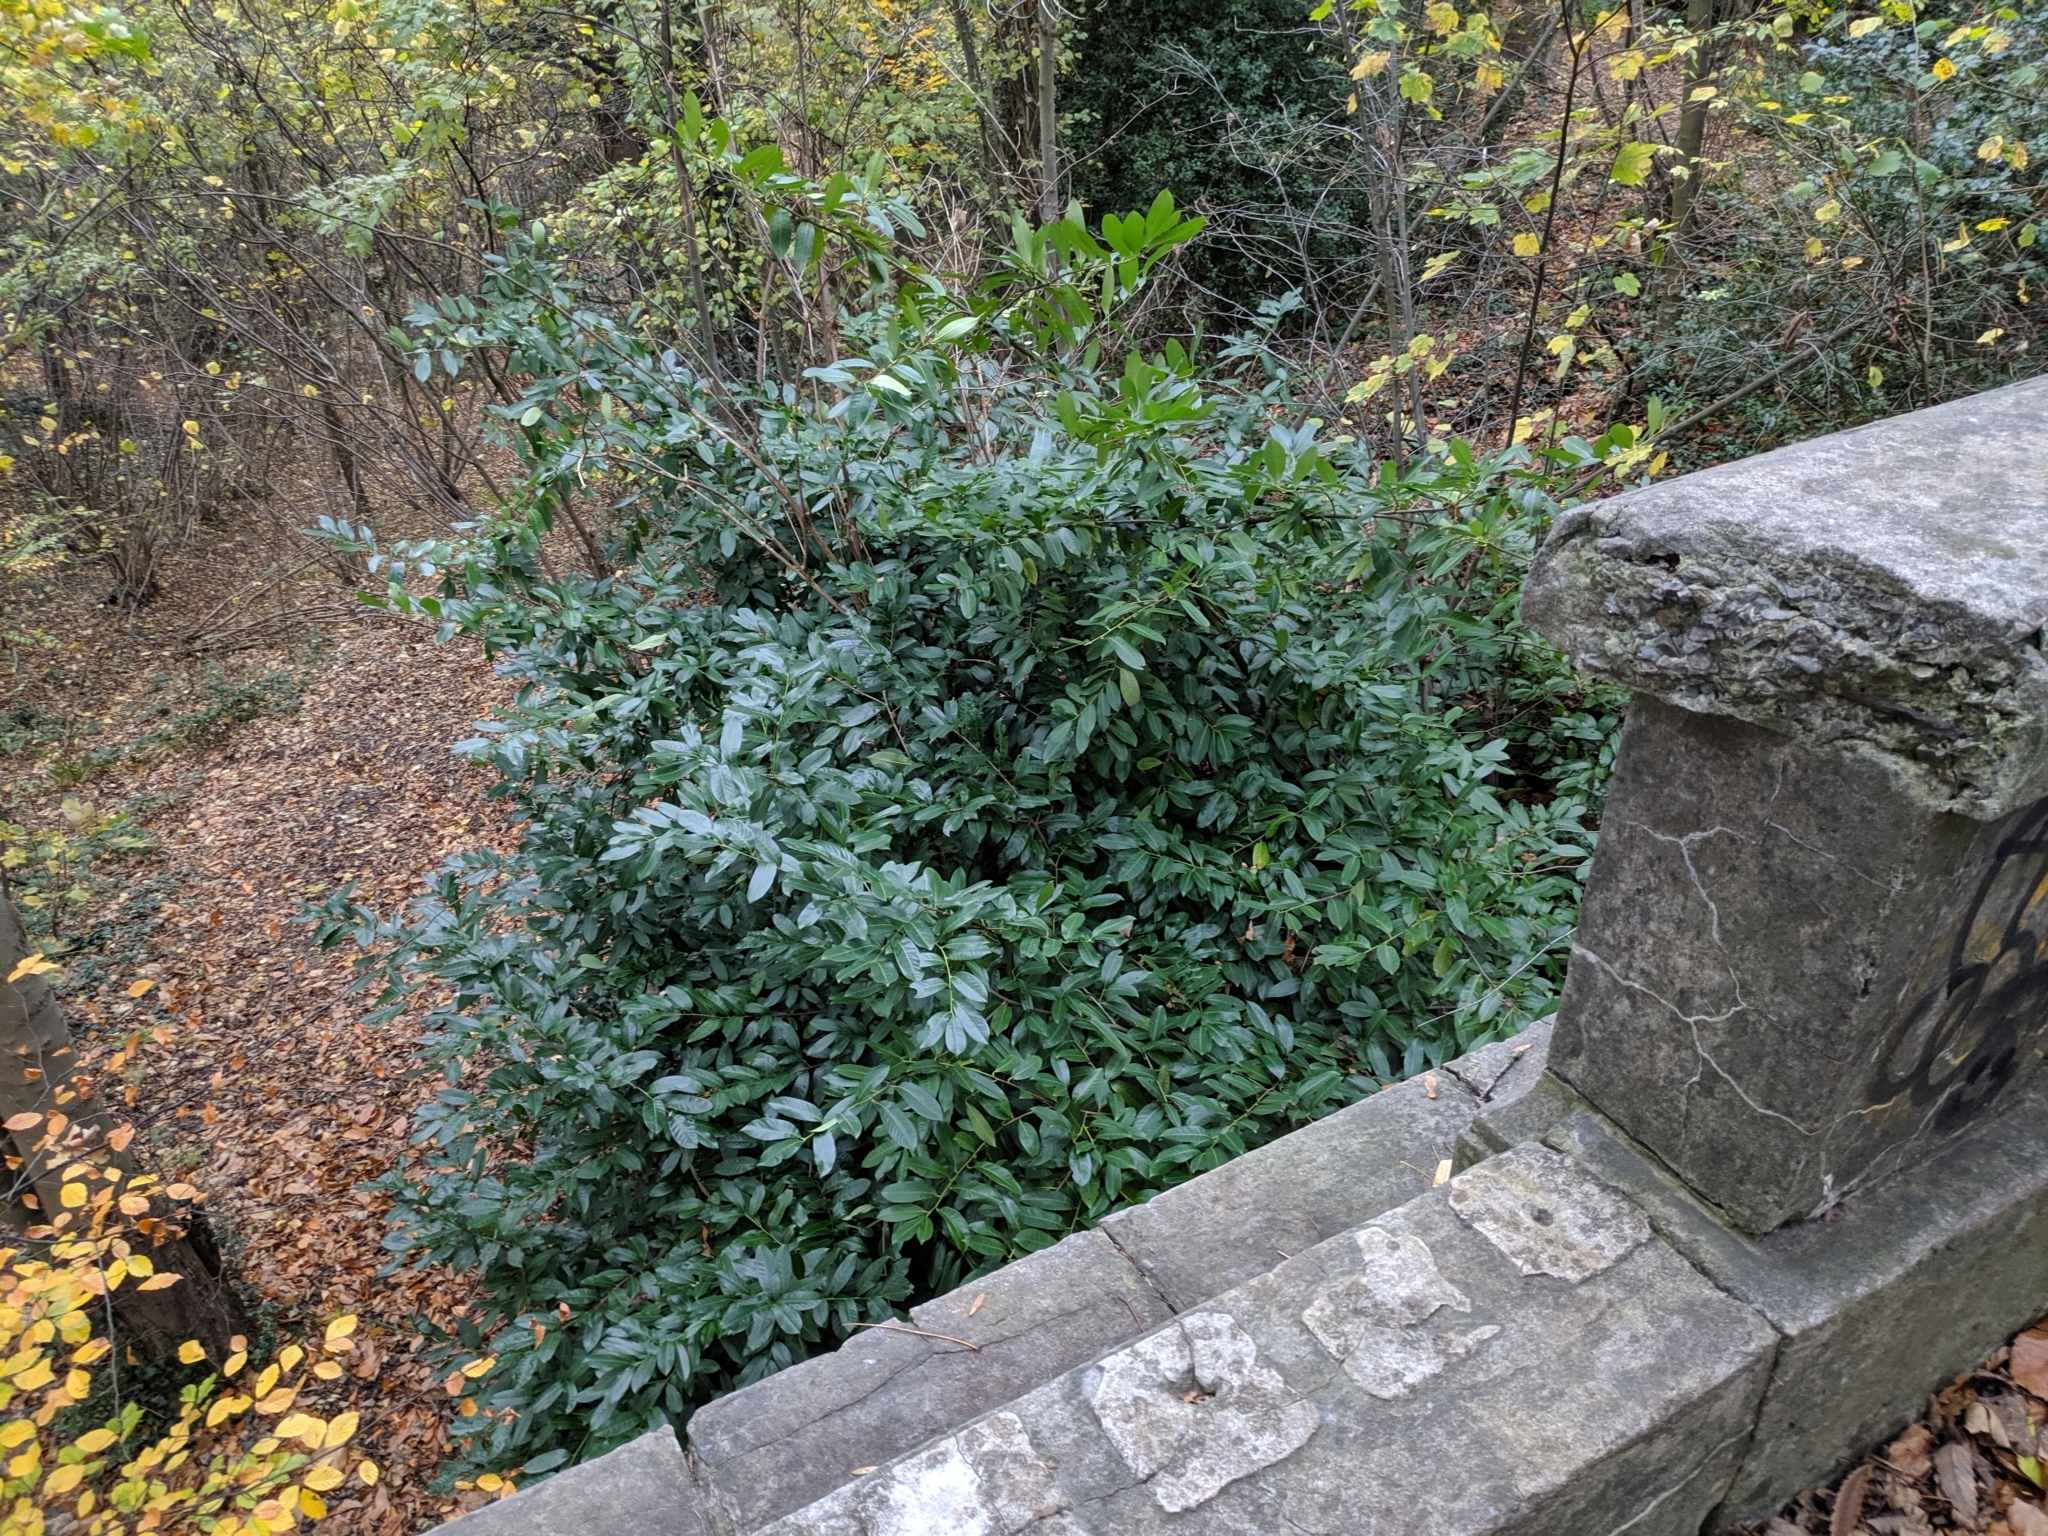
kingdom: Plantae
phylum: Tracheophyta
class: Magnoliopsida
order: Rosales
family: Rosaceae
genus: Prunus
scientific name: Prunus laurocerasus
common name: Cherry laurel
